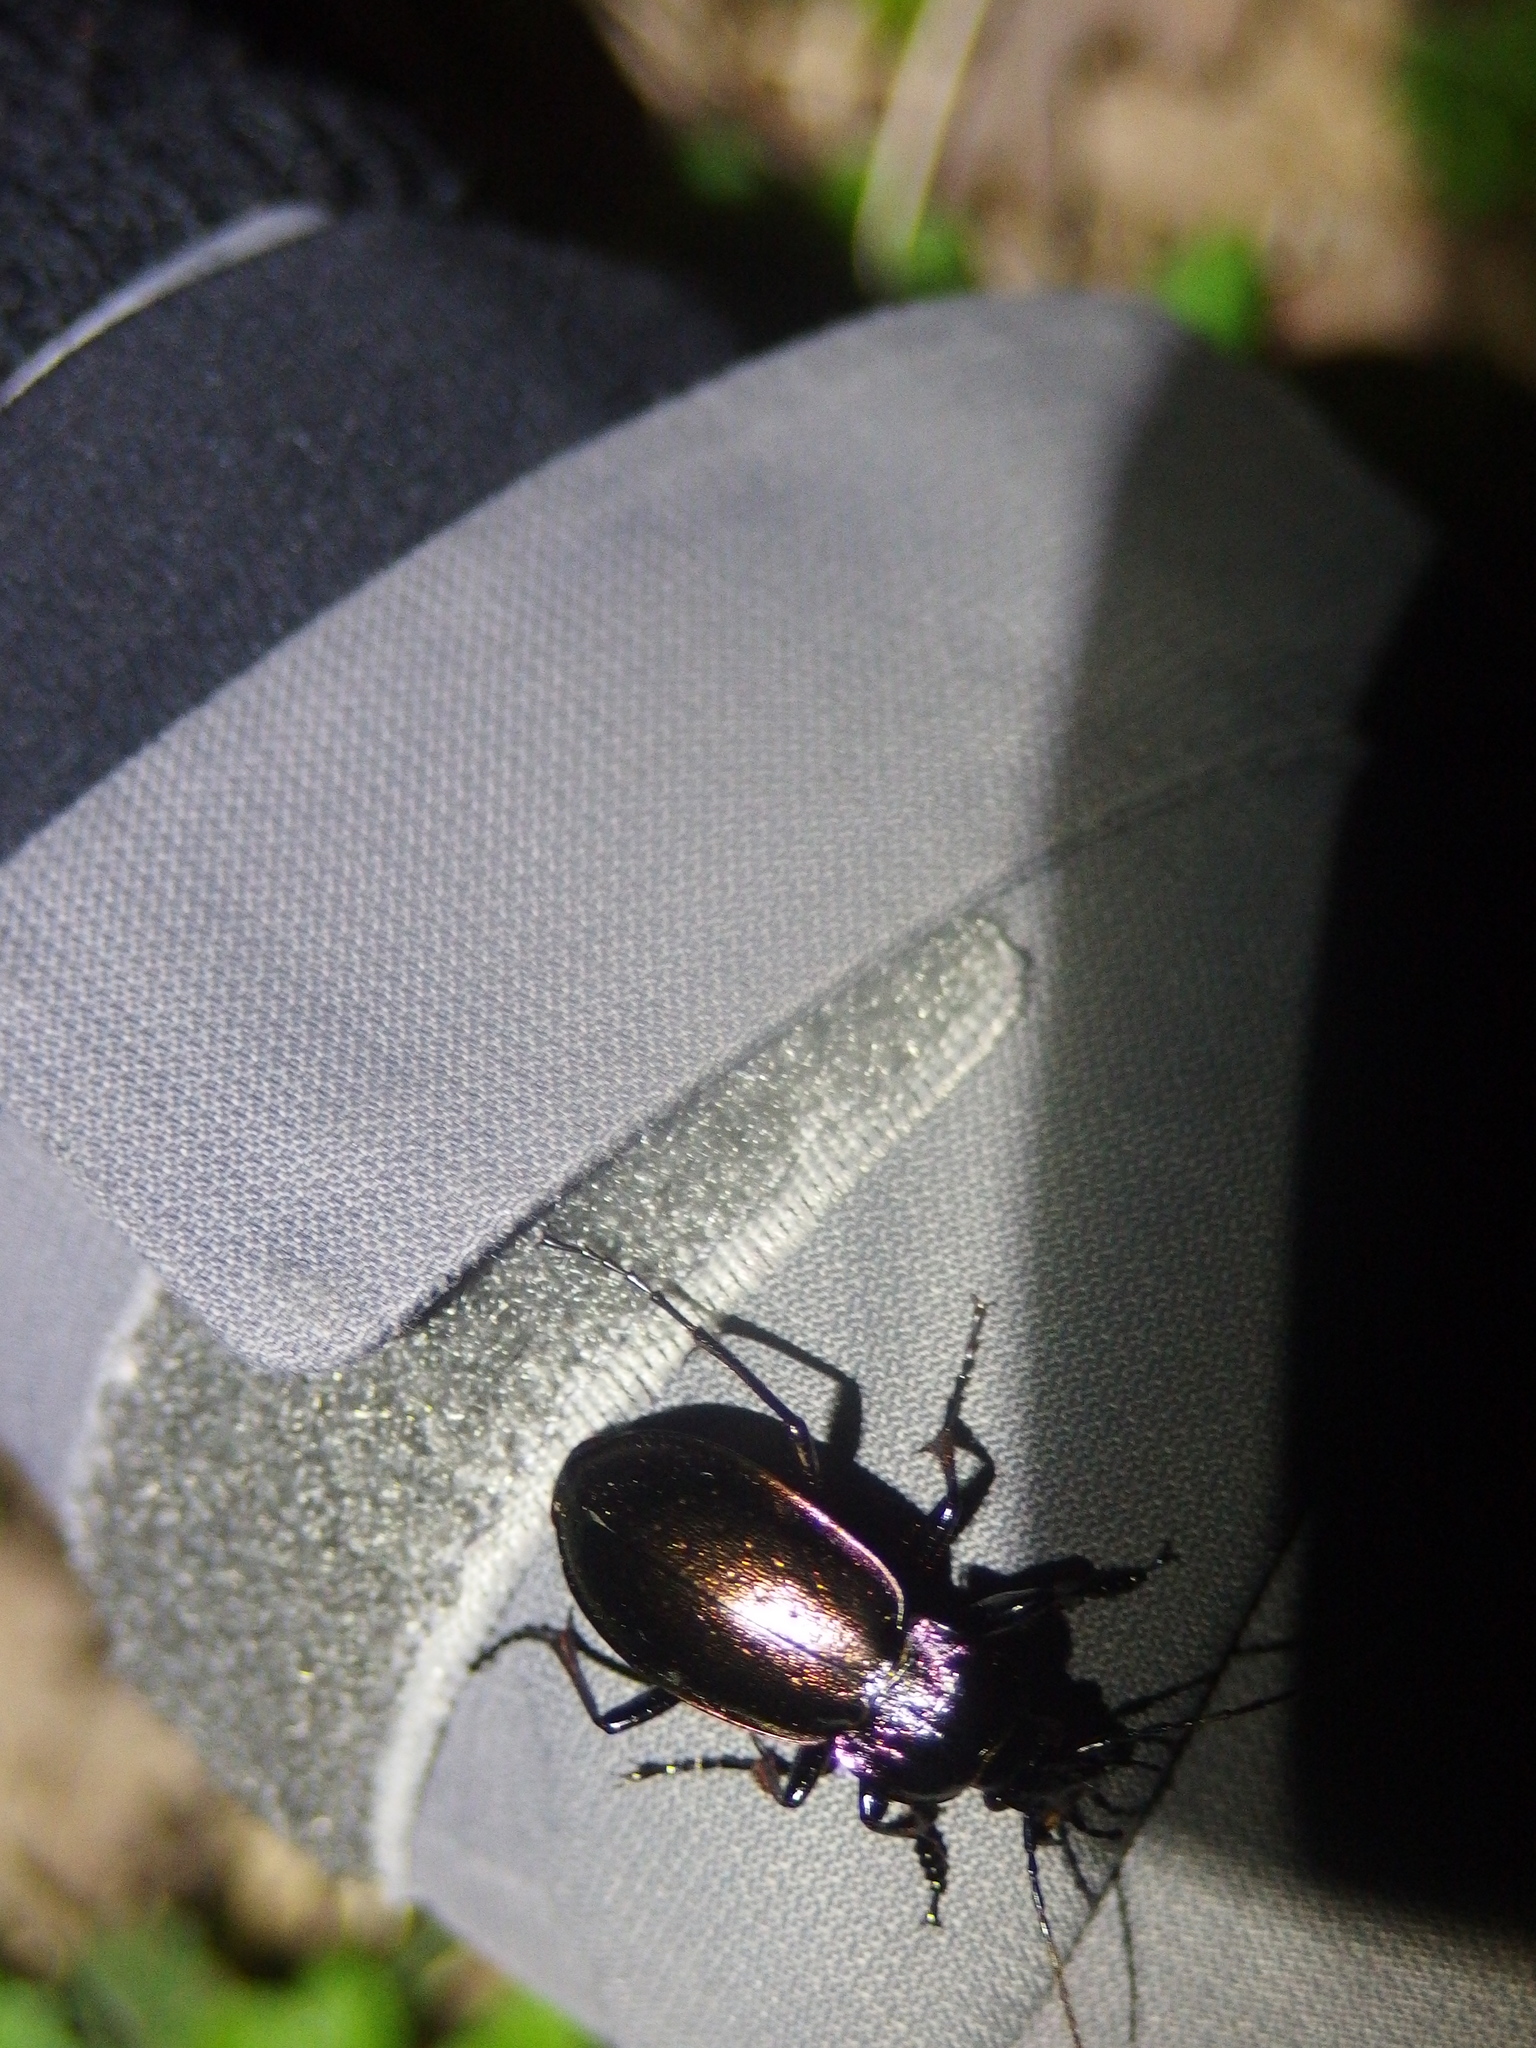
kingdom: Animalia
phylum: Arthropoda
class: Insecta
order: Coleoptera
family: Carabidae
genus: Carabus
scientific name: Carabus nemoralis
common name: European ground beetle
